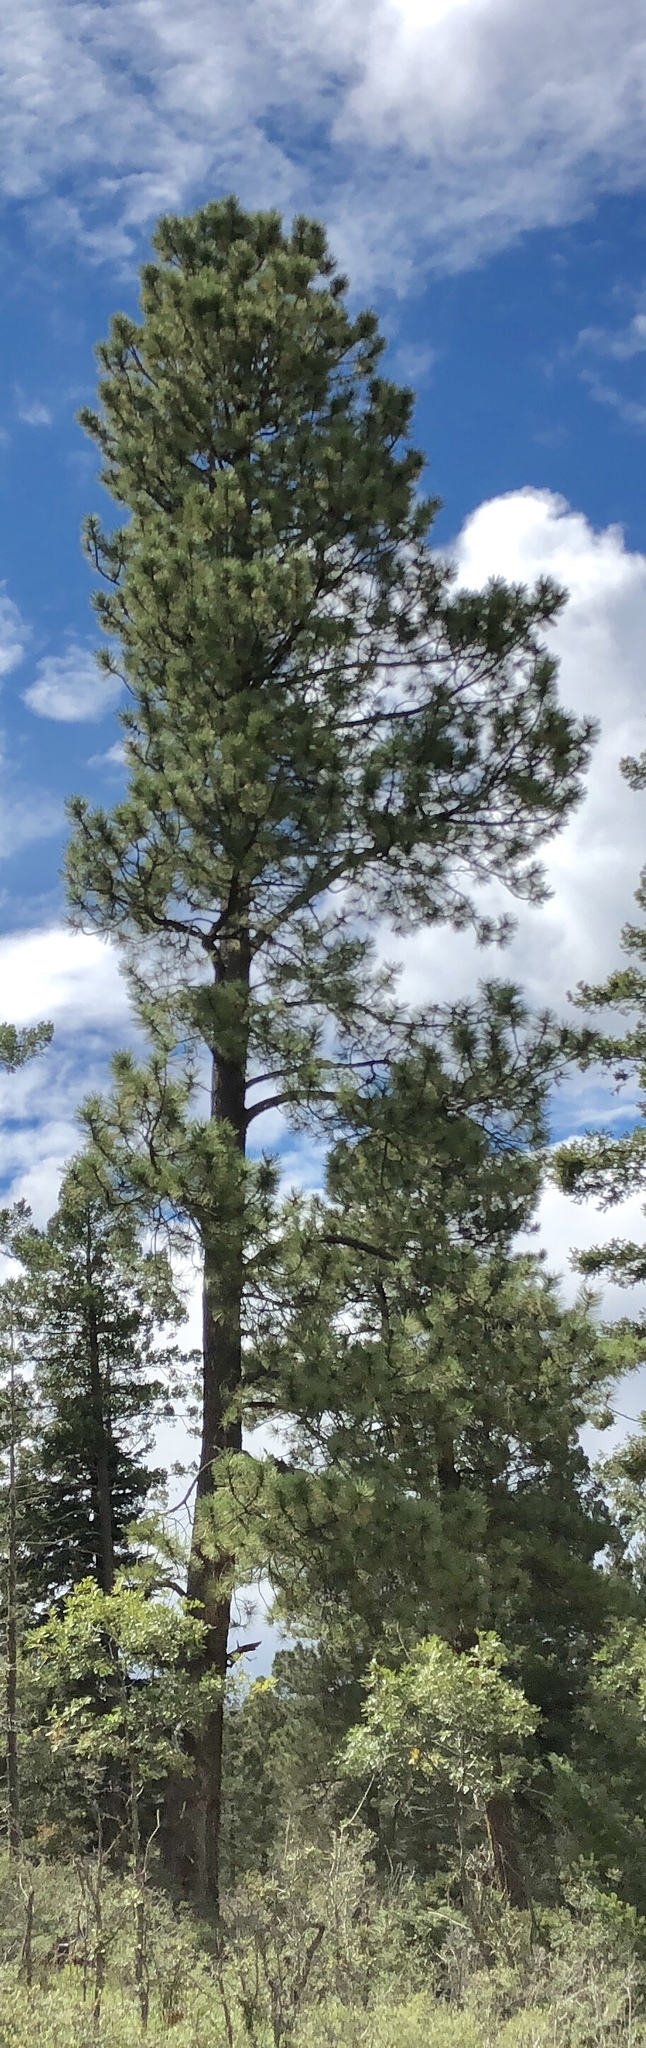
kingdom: Plantae
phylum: Tracheophyta
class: Pinopsida
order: Pinales
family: Pinaceae
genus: Pinus
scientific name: Pinus ponderosa
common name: Western yellow-pine
